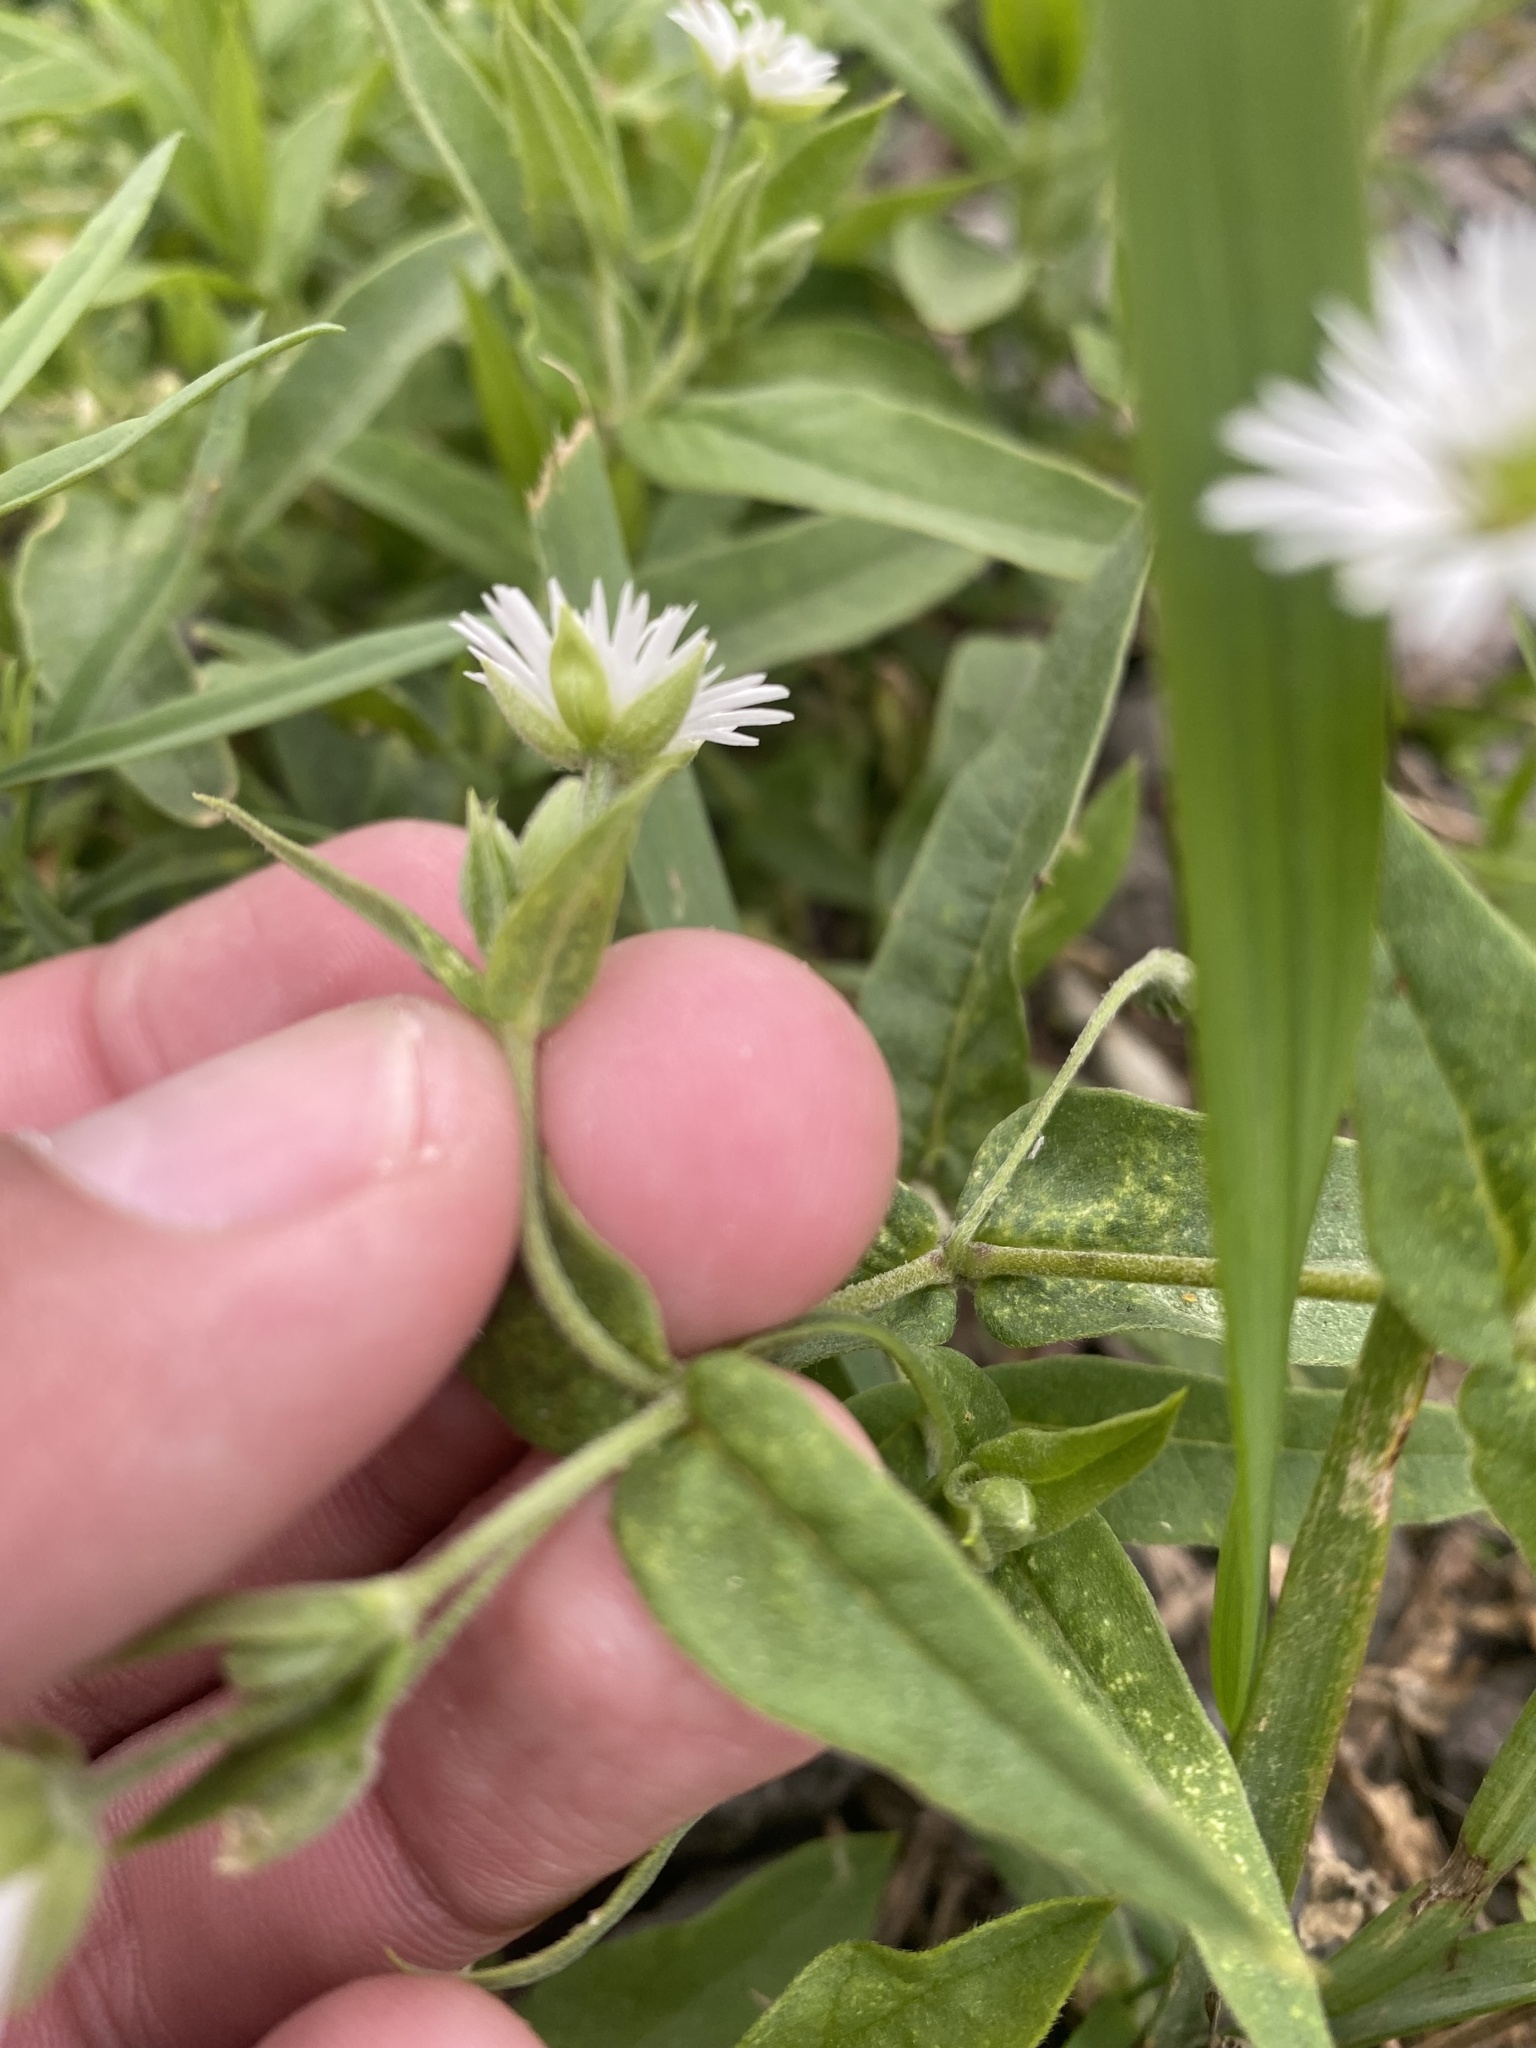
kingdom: Plantae
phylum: Tracheophyta
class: Magnoliopsida
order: Caryophyllales
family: Caryophyllaceae
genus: Stellaria
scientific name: Stellaria radians
